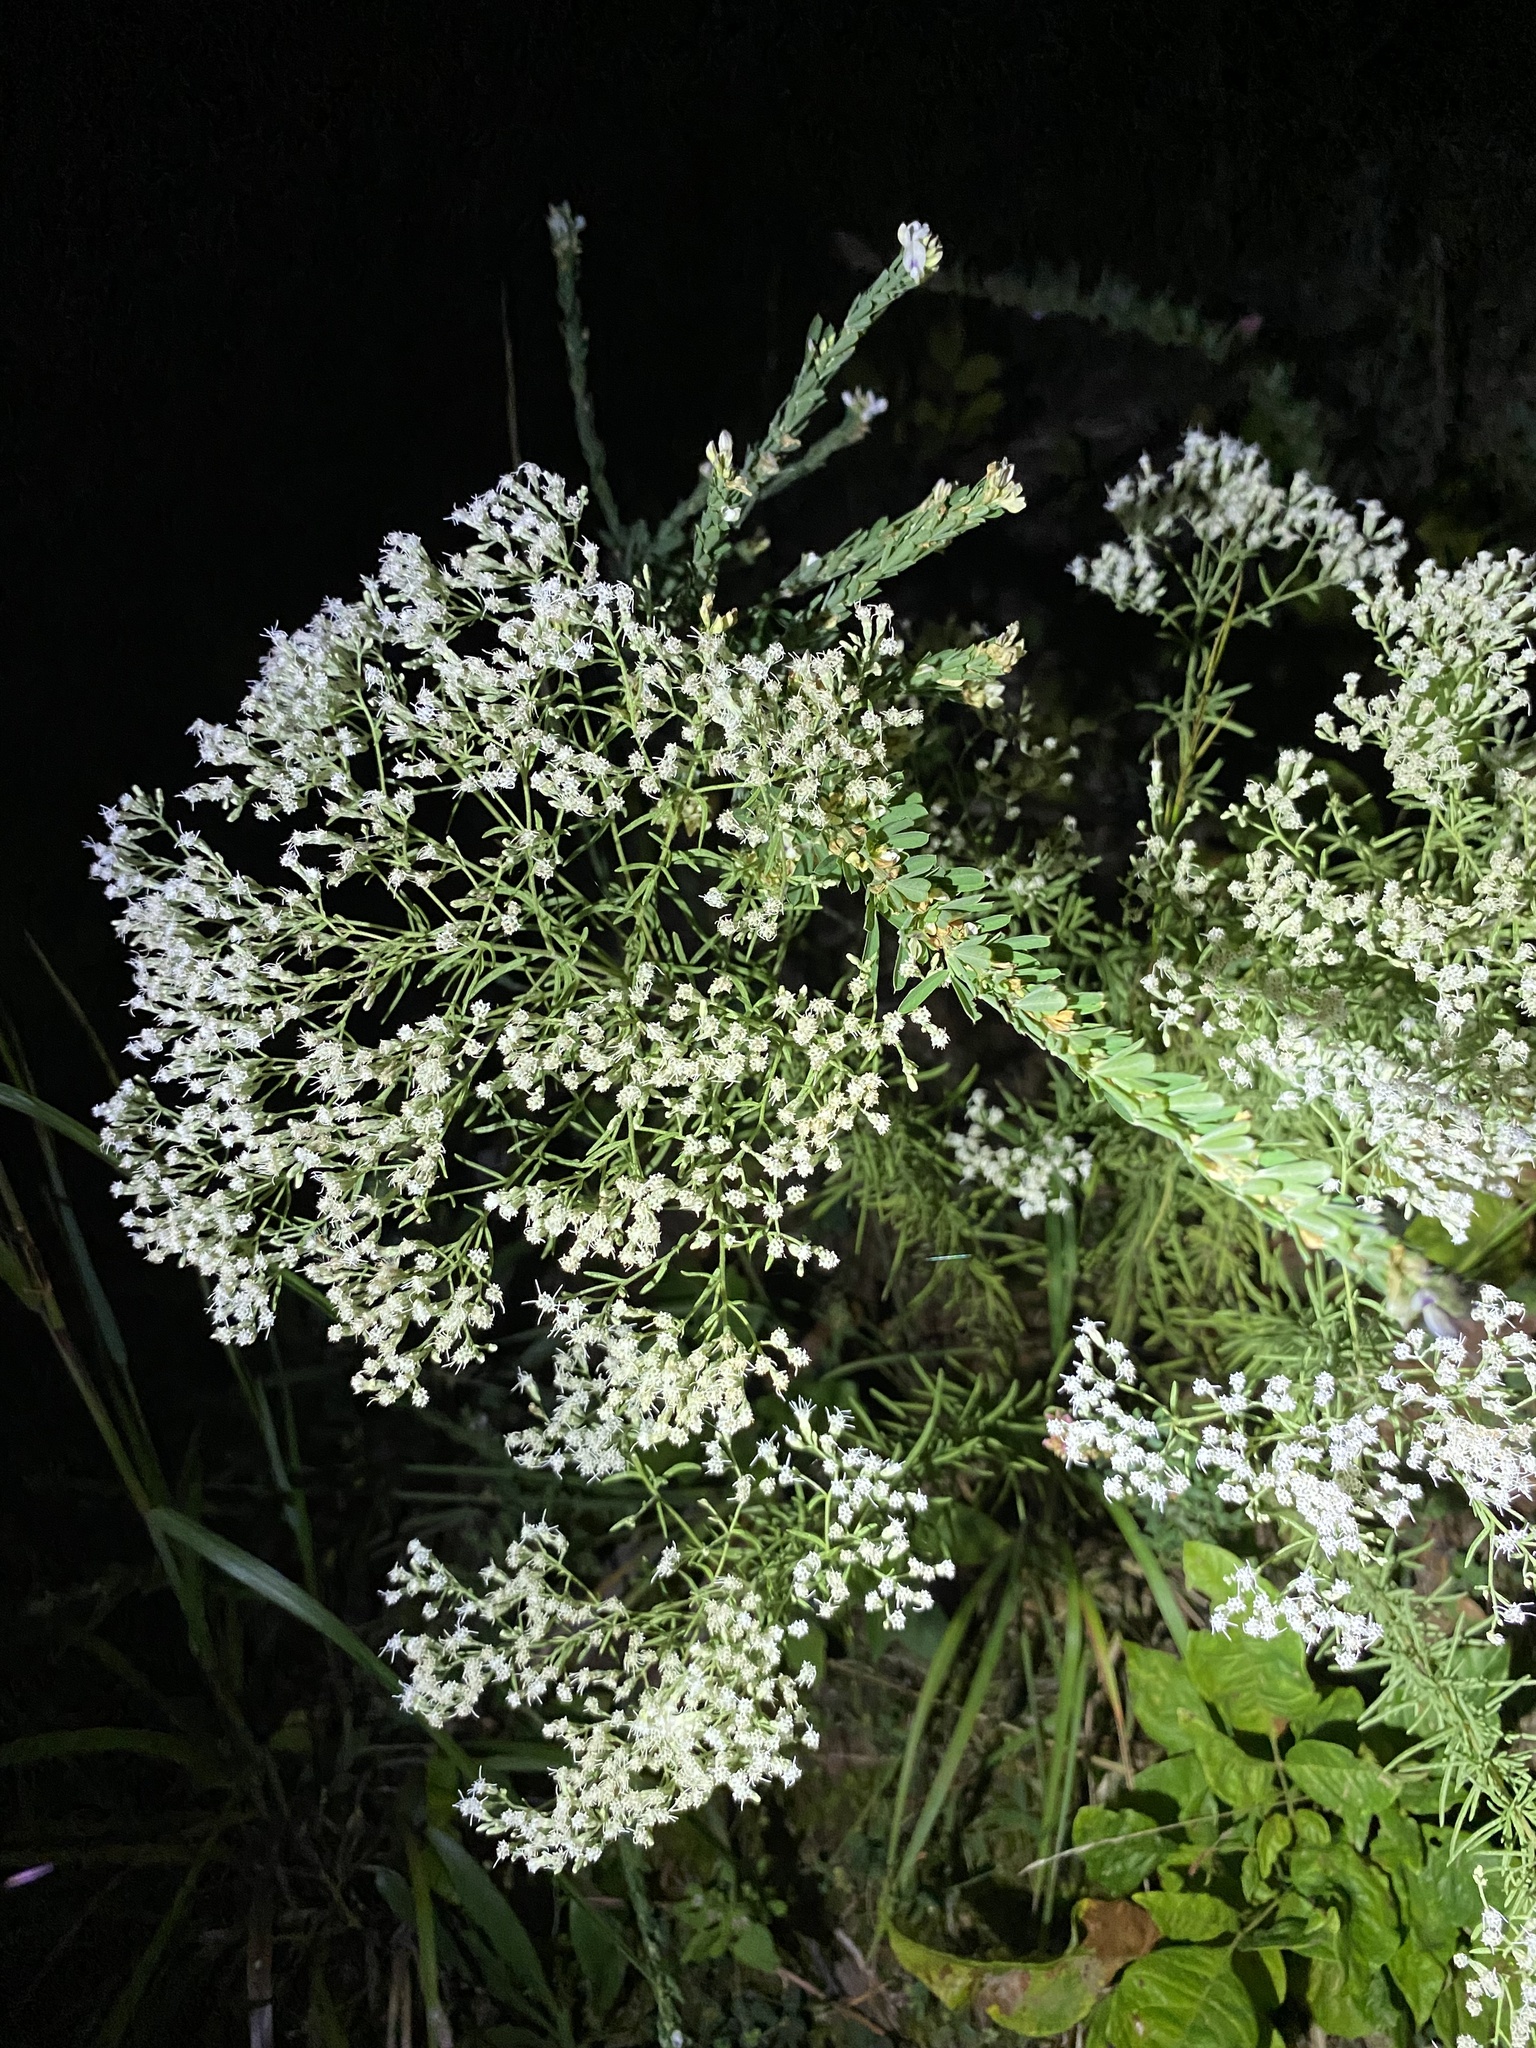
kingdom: Plantae
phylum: Tracheophyta
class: Magnoliopsida
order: Asterales
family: Asteraceae
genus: Eupatorium
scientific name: Eupatorium hyssopifolium
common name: Hyssop-leaf thoroughwort
